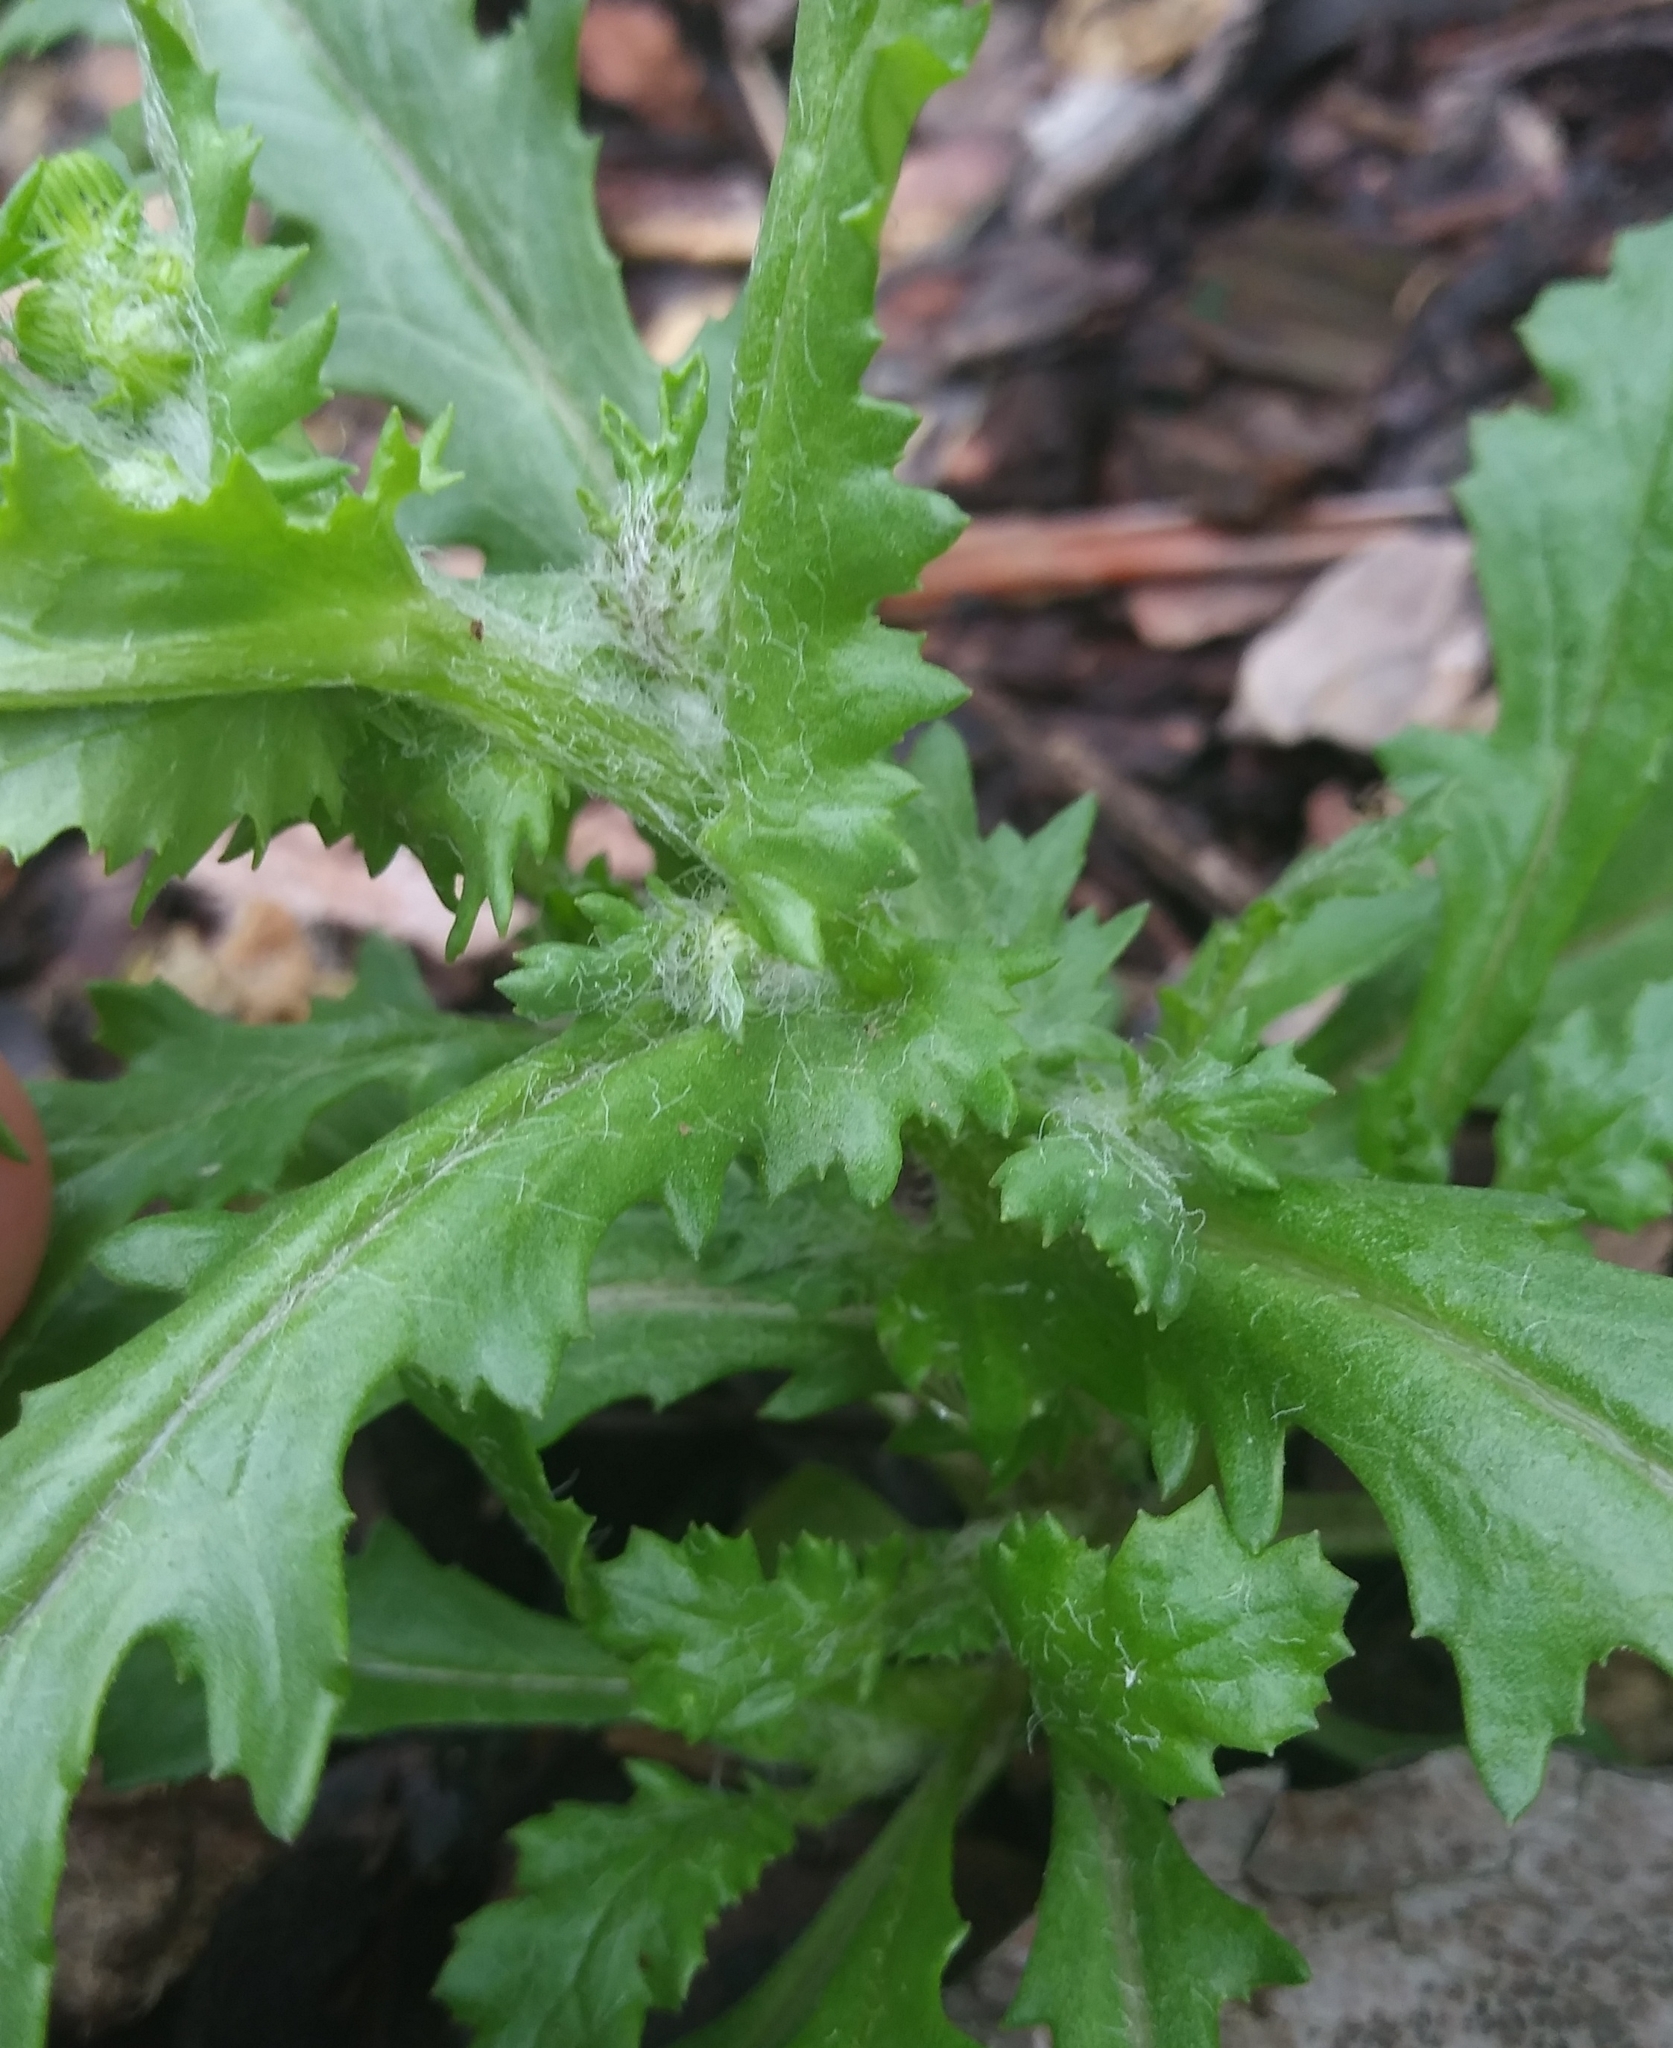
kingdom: Plantae
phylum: Tracheophyta
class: Magnoliopsida
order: Asterales
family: Asteraceae
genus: Senecio
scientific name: Senecio vulgaris
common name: Old-man-in-the-spring
